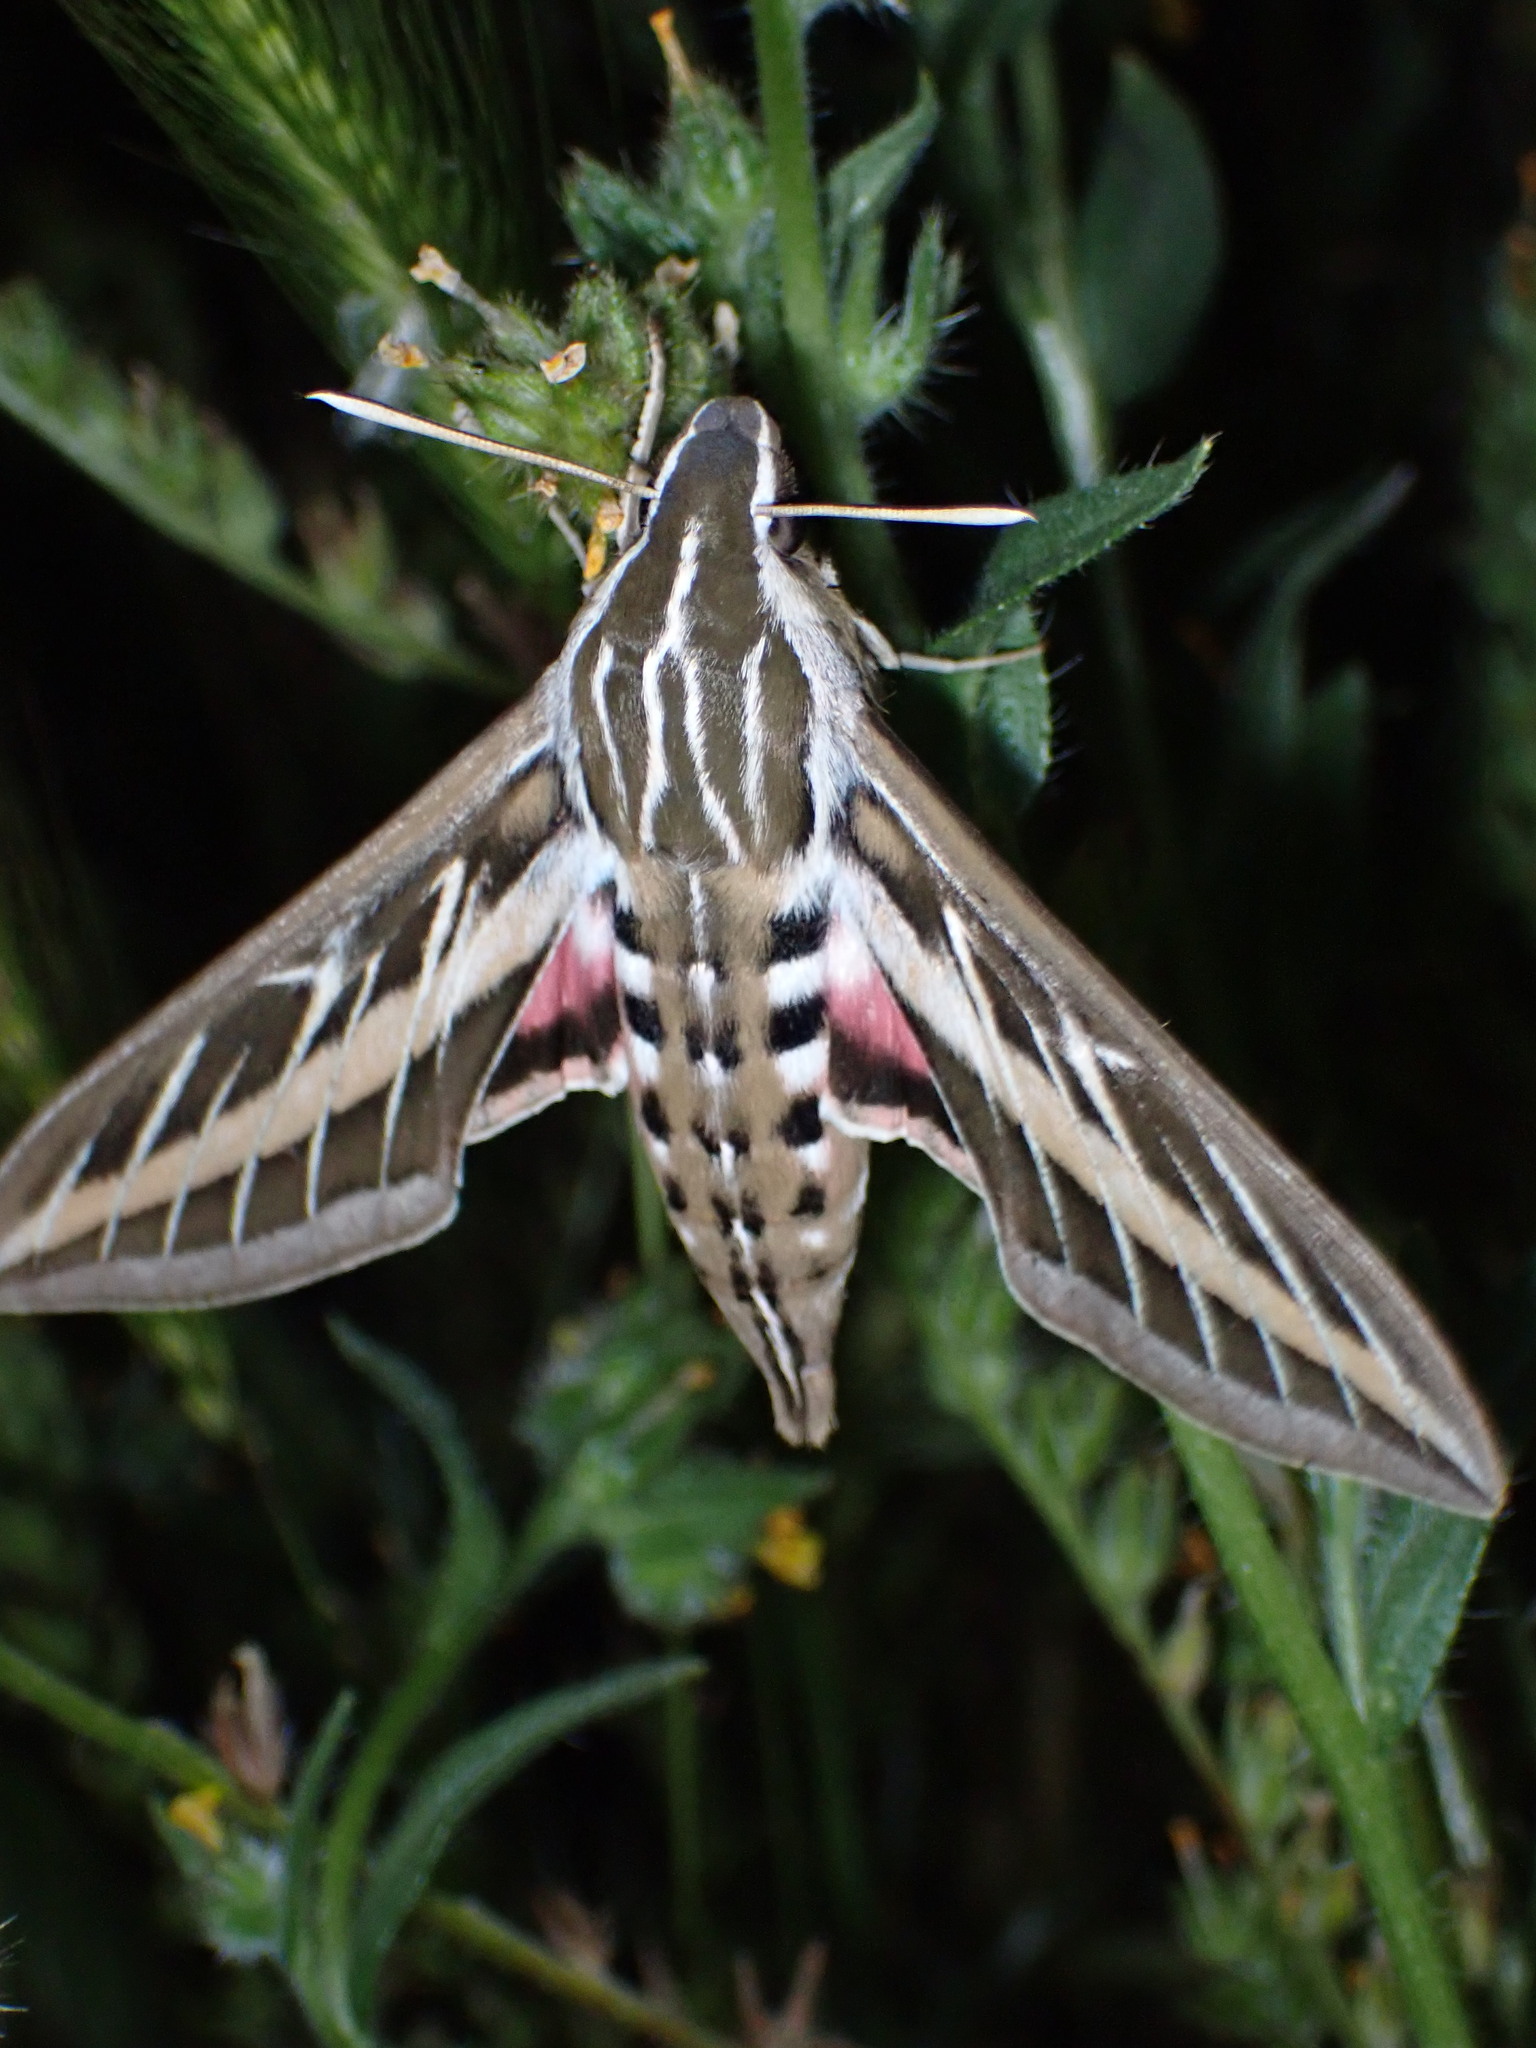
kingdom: Animalia
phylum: Arthropoda
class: Insecta
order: Lepidoptera
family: Sphingidae
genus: Hyles
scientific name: Hyles lineata
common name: White-lined sphinx
